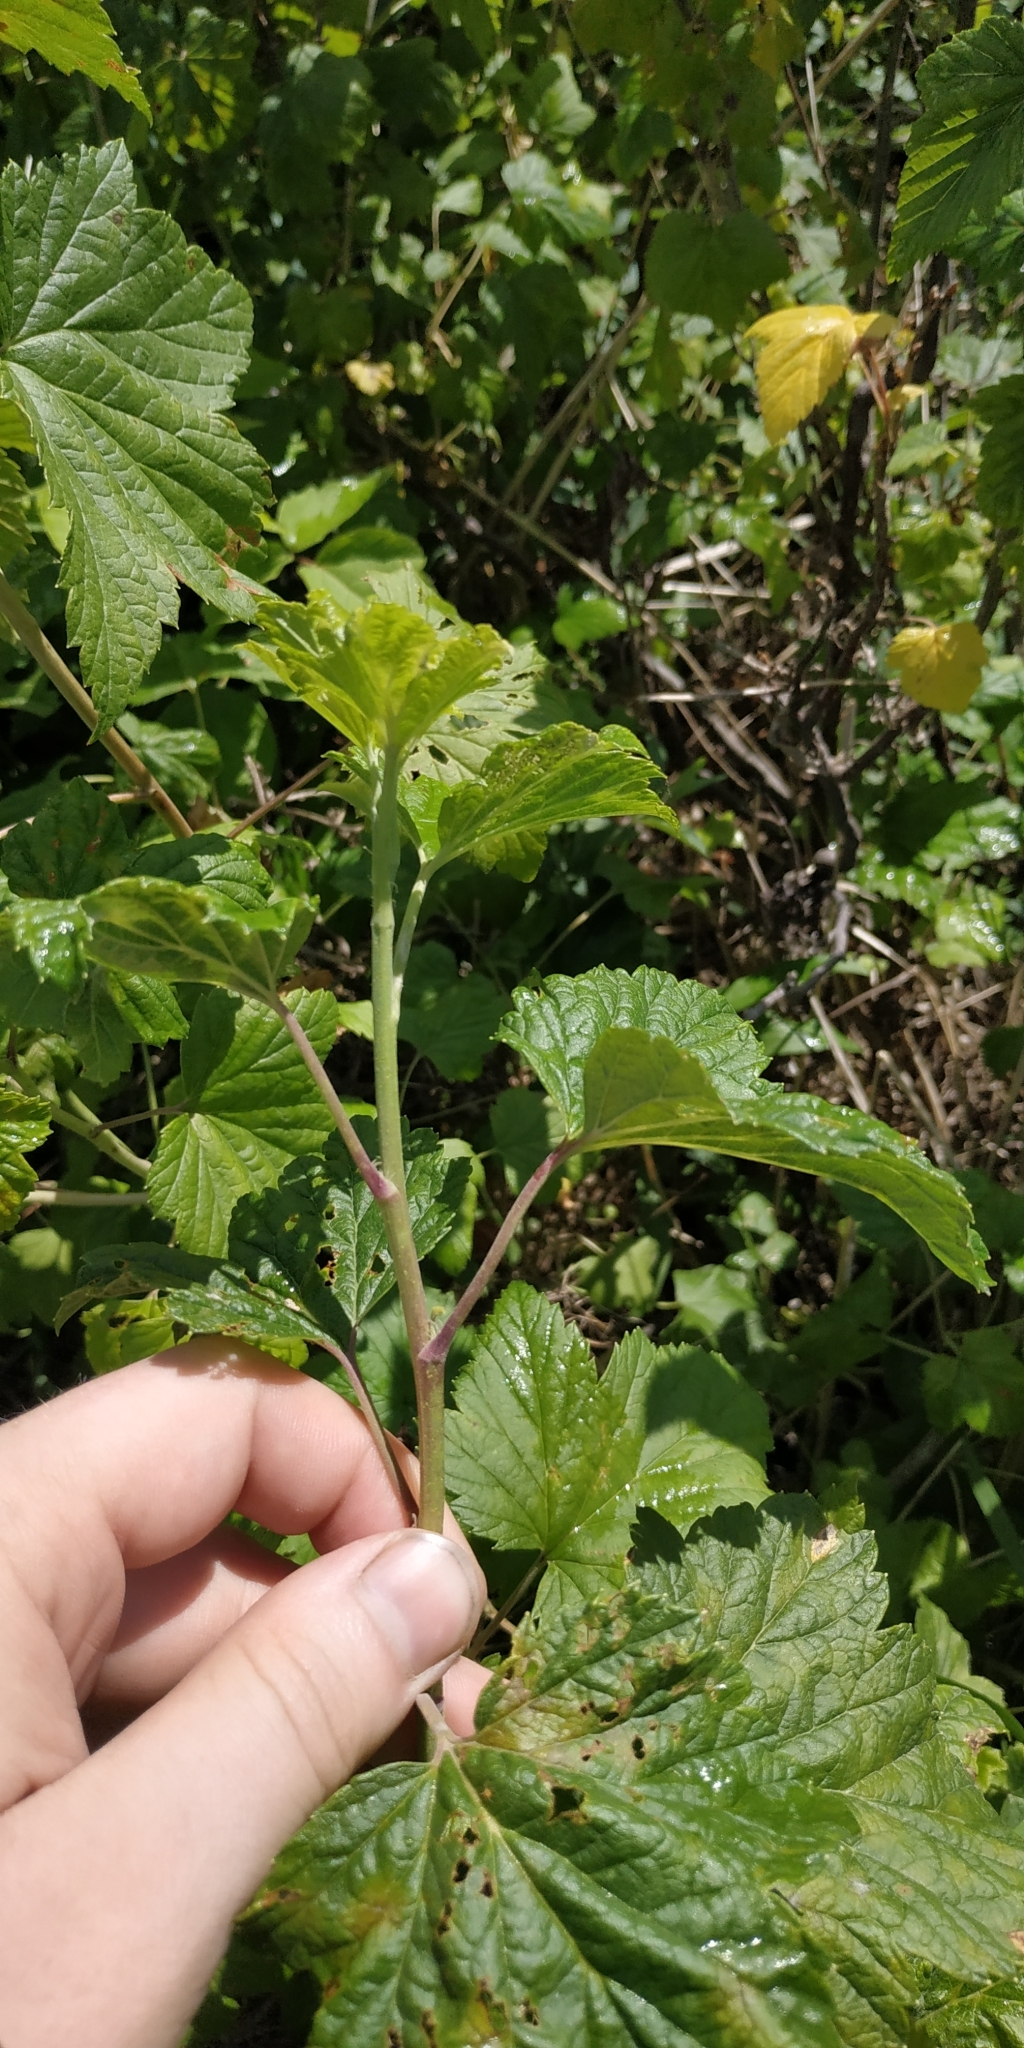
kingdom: Plantae
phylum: Tracheophyta
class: Magnoliopsida
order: Saxifragales
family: Grossulariaceae
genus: Ribes
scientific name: Ribes nigrum
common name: Black currant
